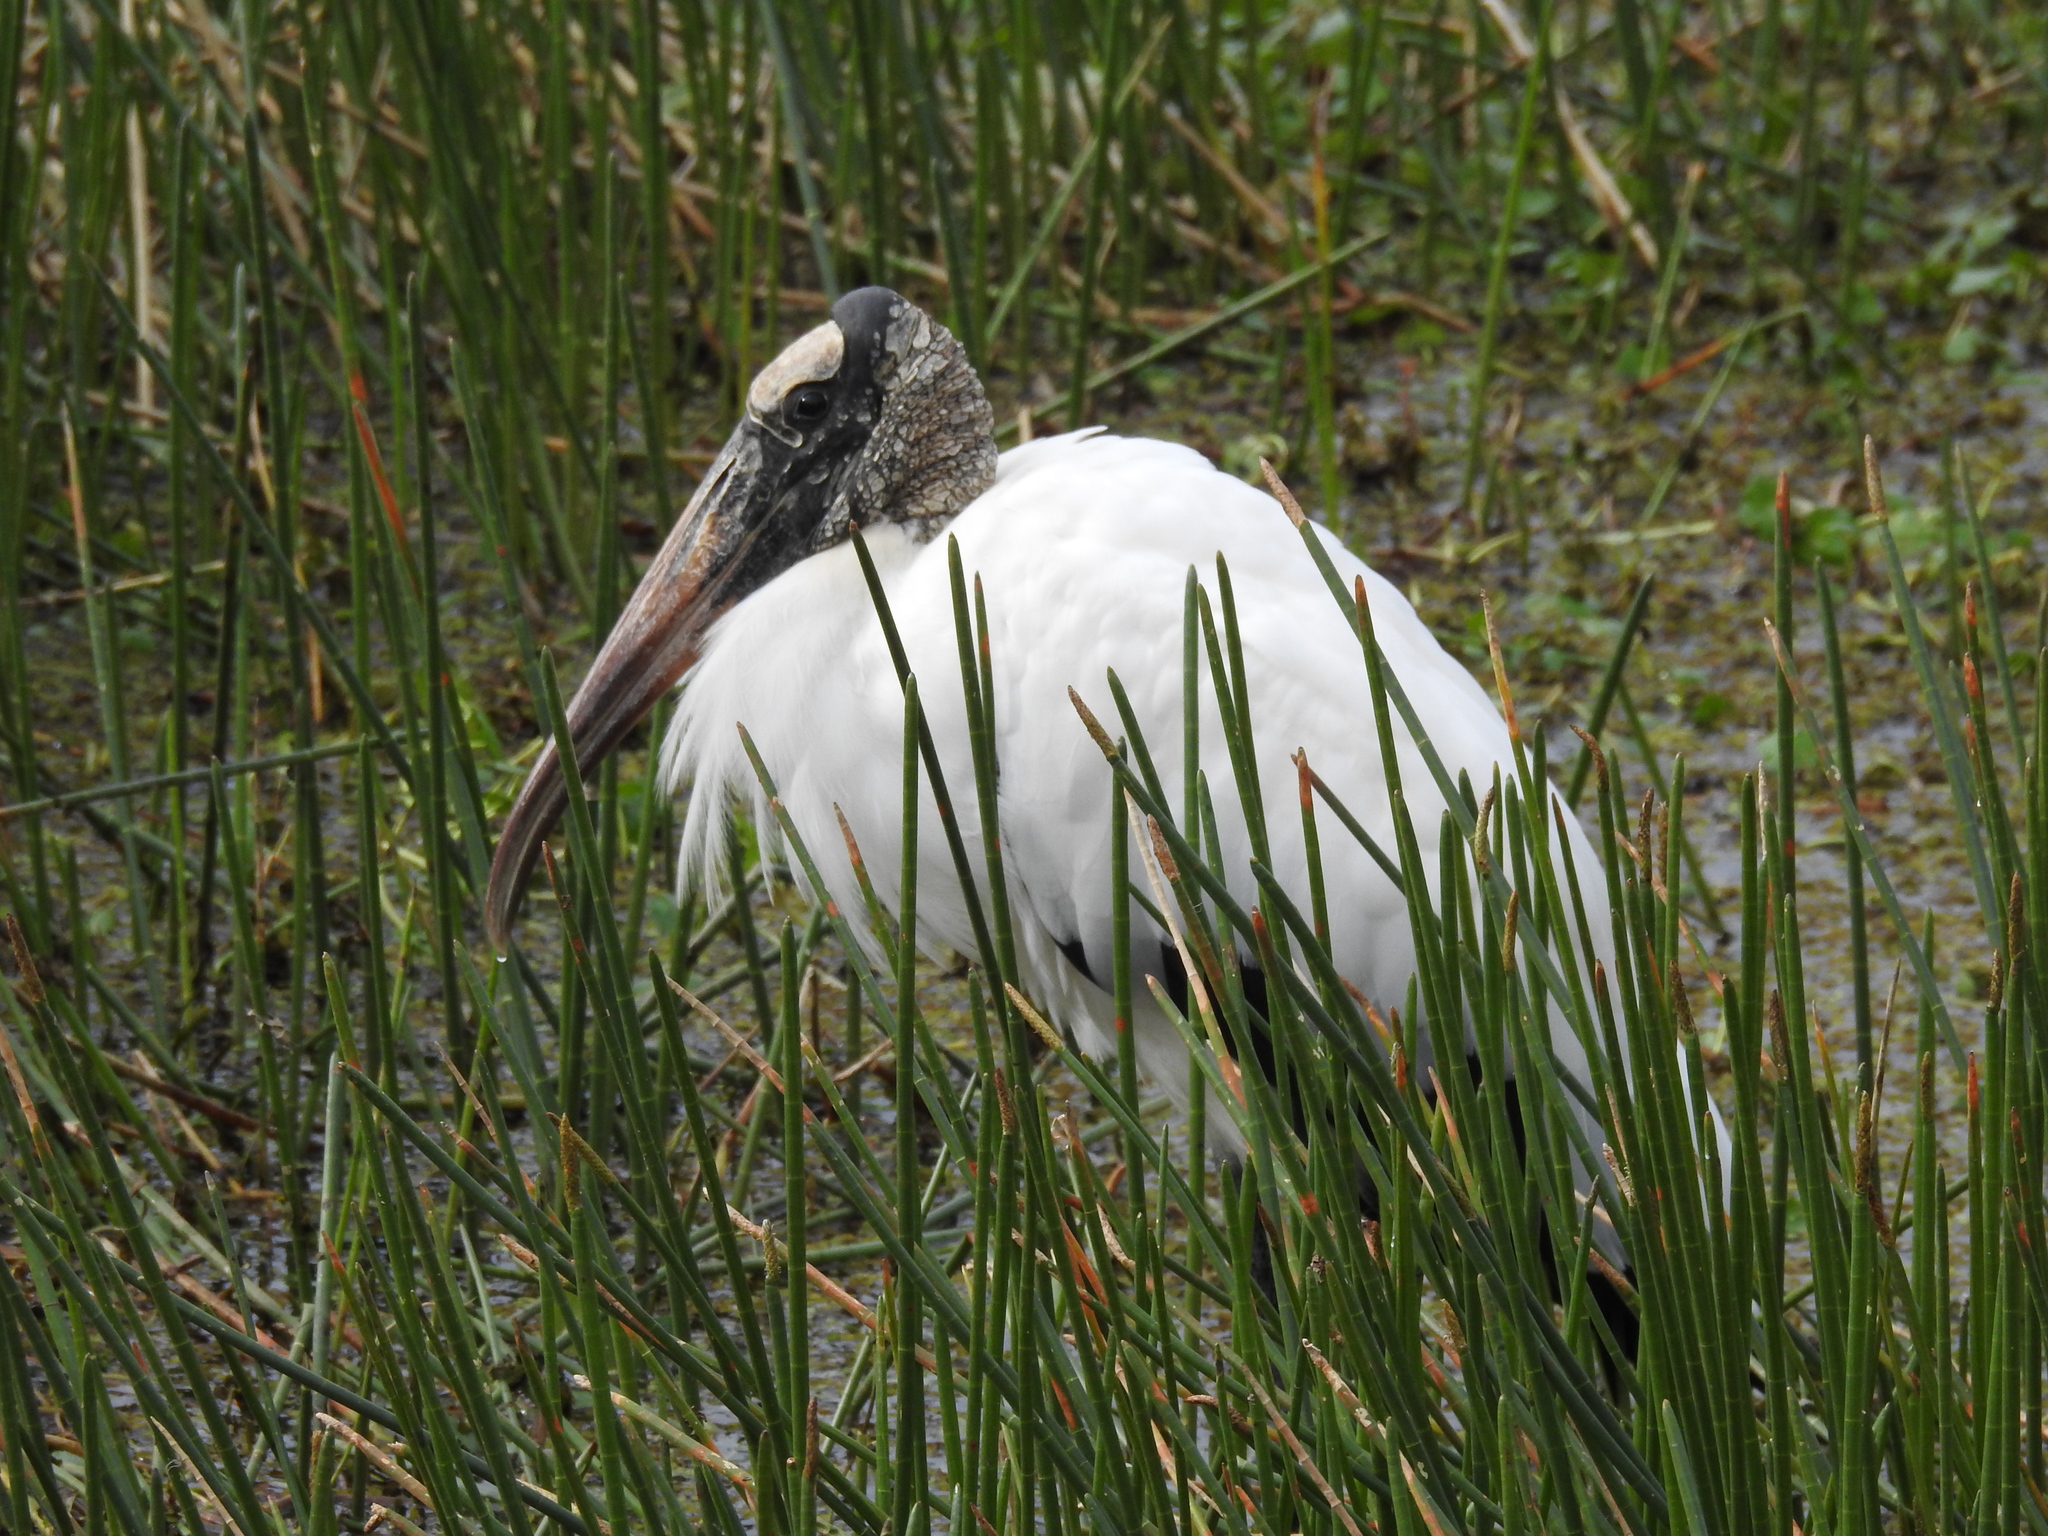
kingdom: Animalia
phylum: Chordata
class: Aves
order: Ciconiiformes
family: Ciconiidae
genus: Mycteria
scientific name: Mycteria americana
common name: Wood stork
